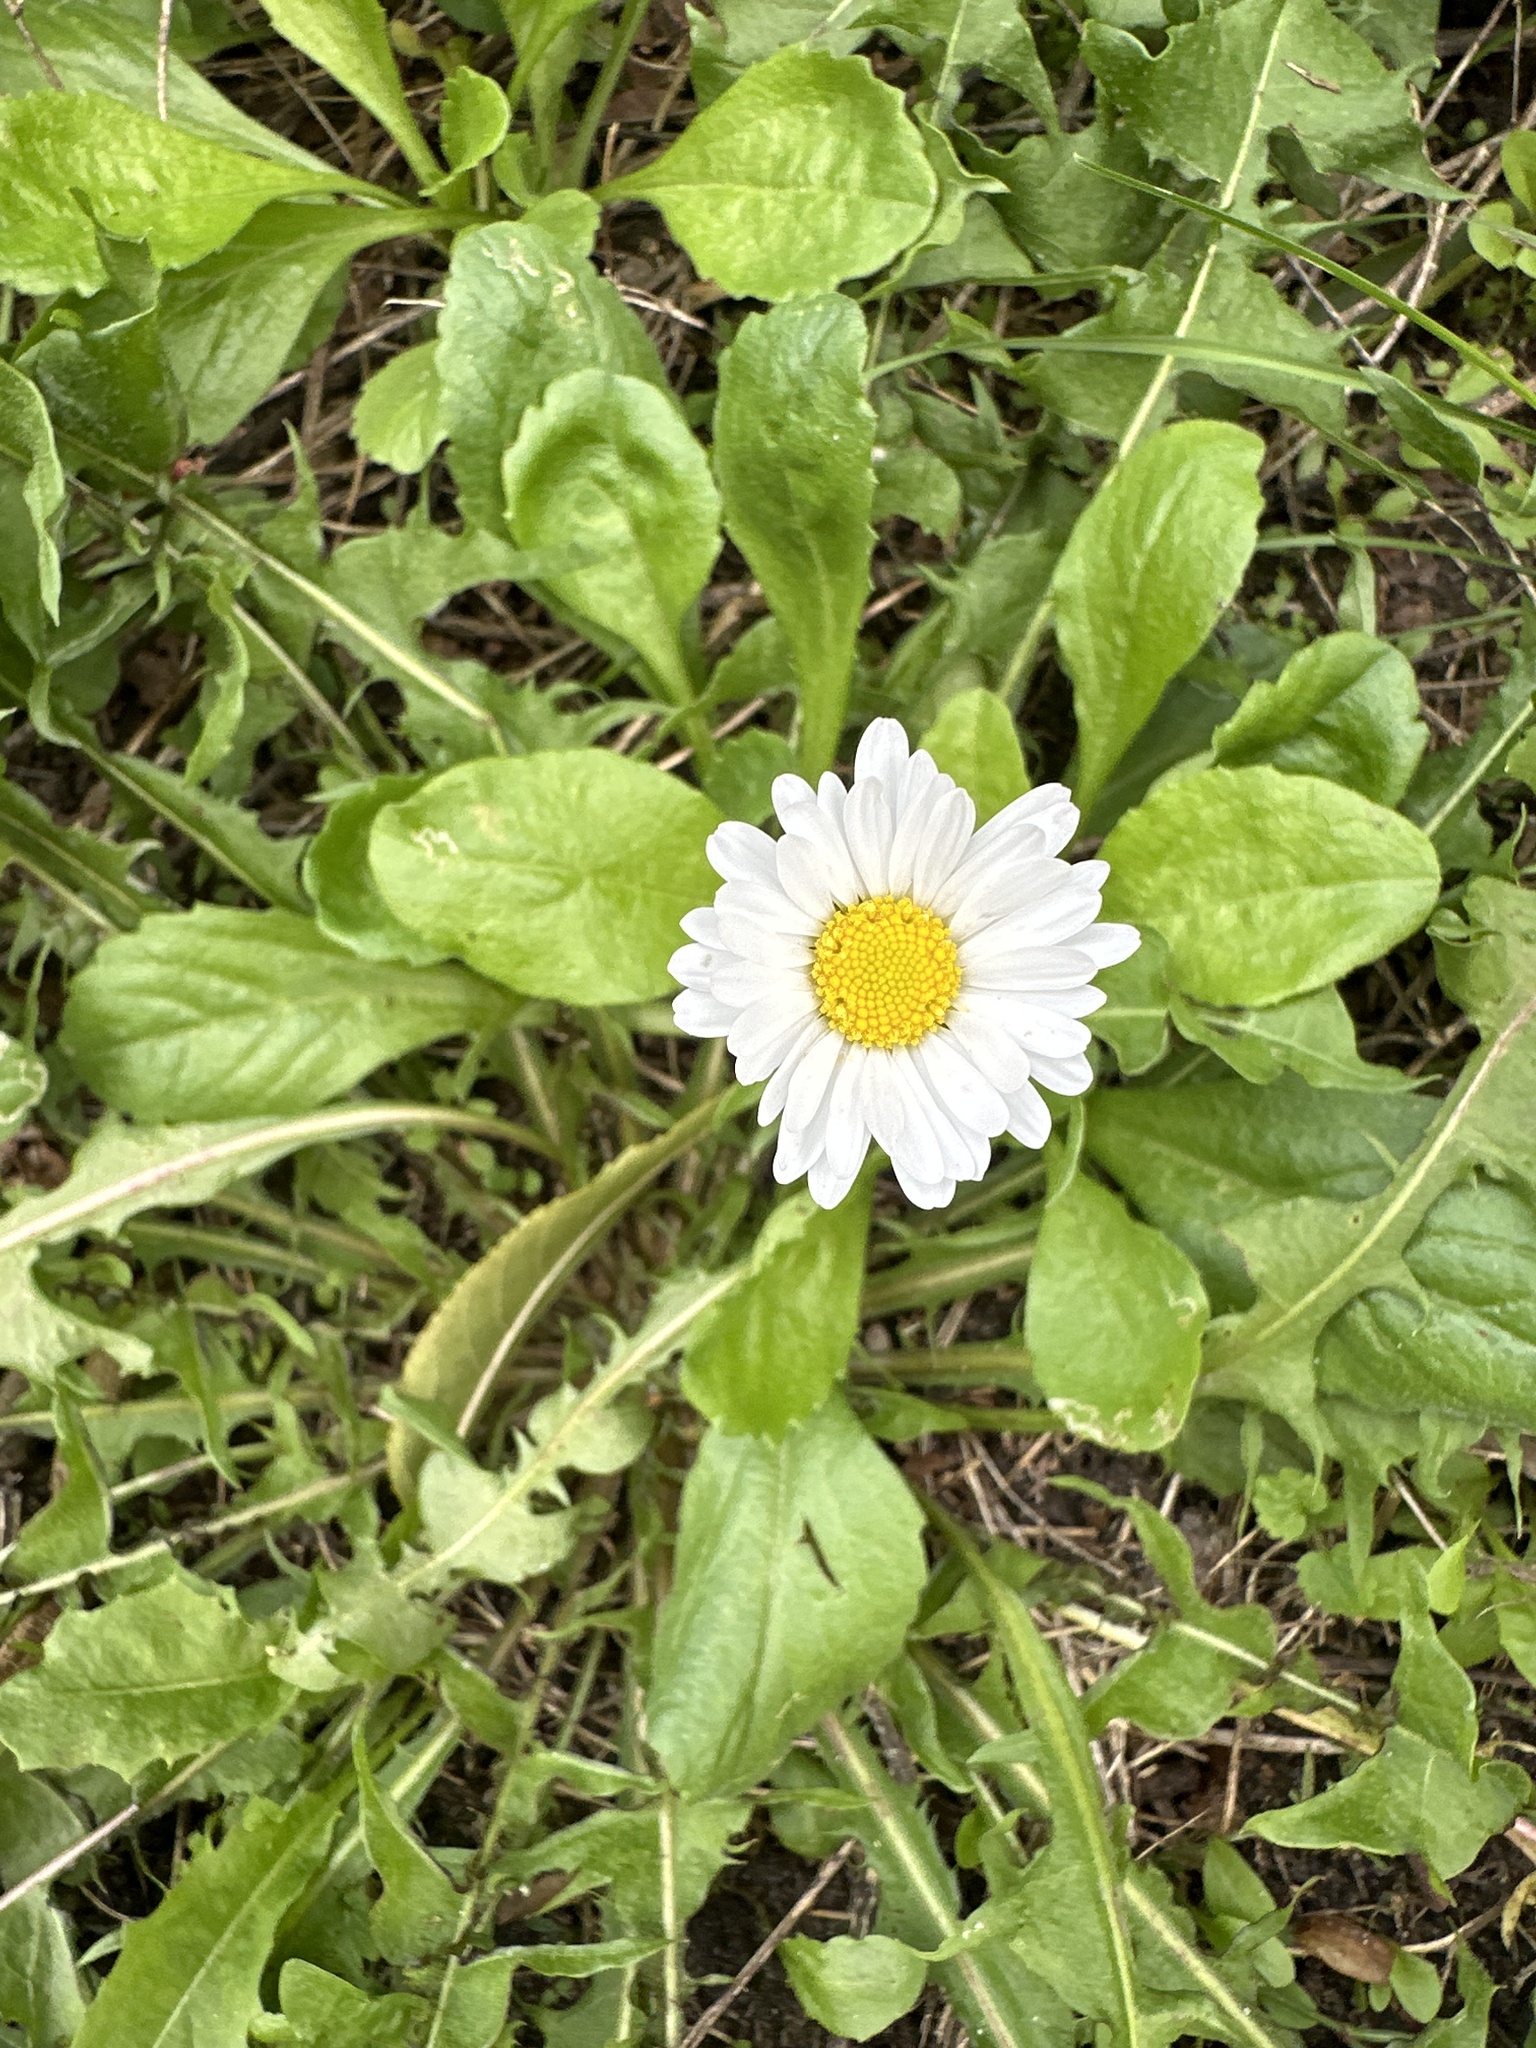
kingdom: Plantae
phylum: Tracheophyta
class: Magnoliopsida
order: Asterales
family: Asteraceae
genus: Bellis
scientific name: Bellis perennis
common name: Lawndaisy
